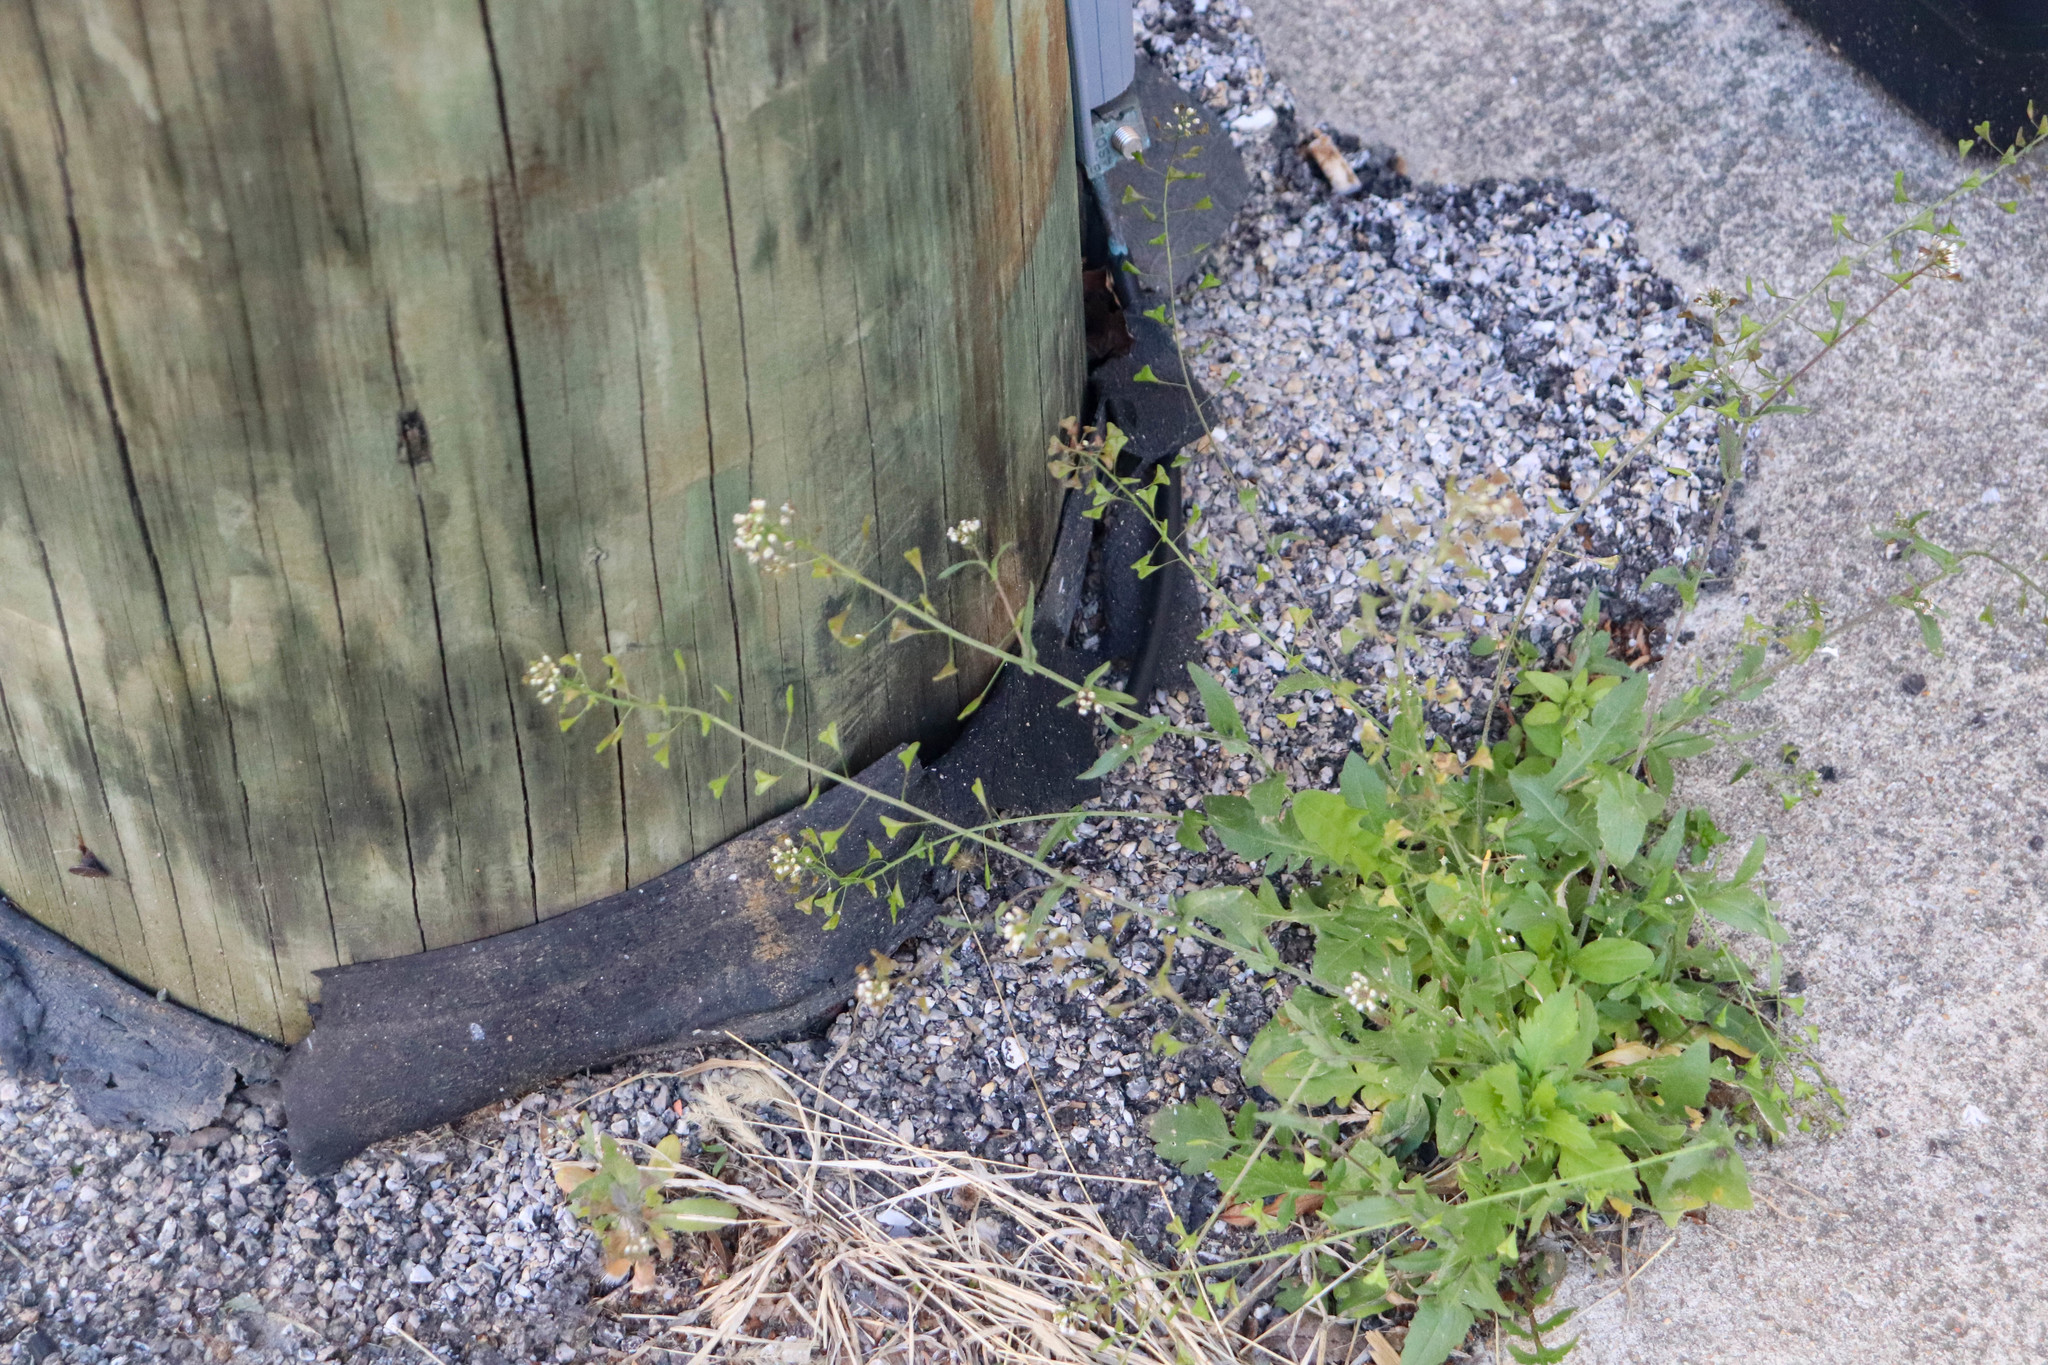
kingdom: Plantae
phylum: Tracheophyta
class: Magnoliopsida
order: Brassicales
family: Brassicaceae
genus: Capsella
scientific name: Capsella bursa-pastoris
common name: Shepherd's purse
